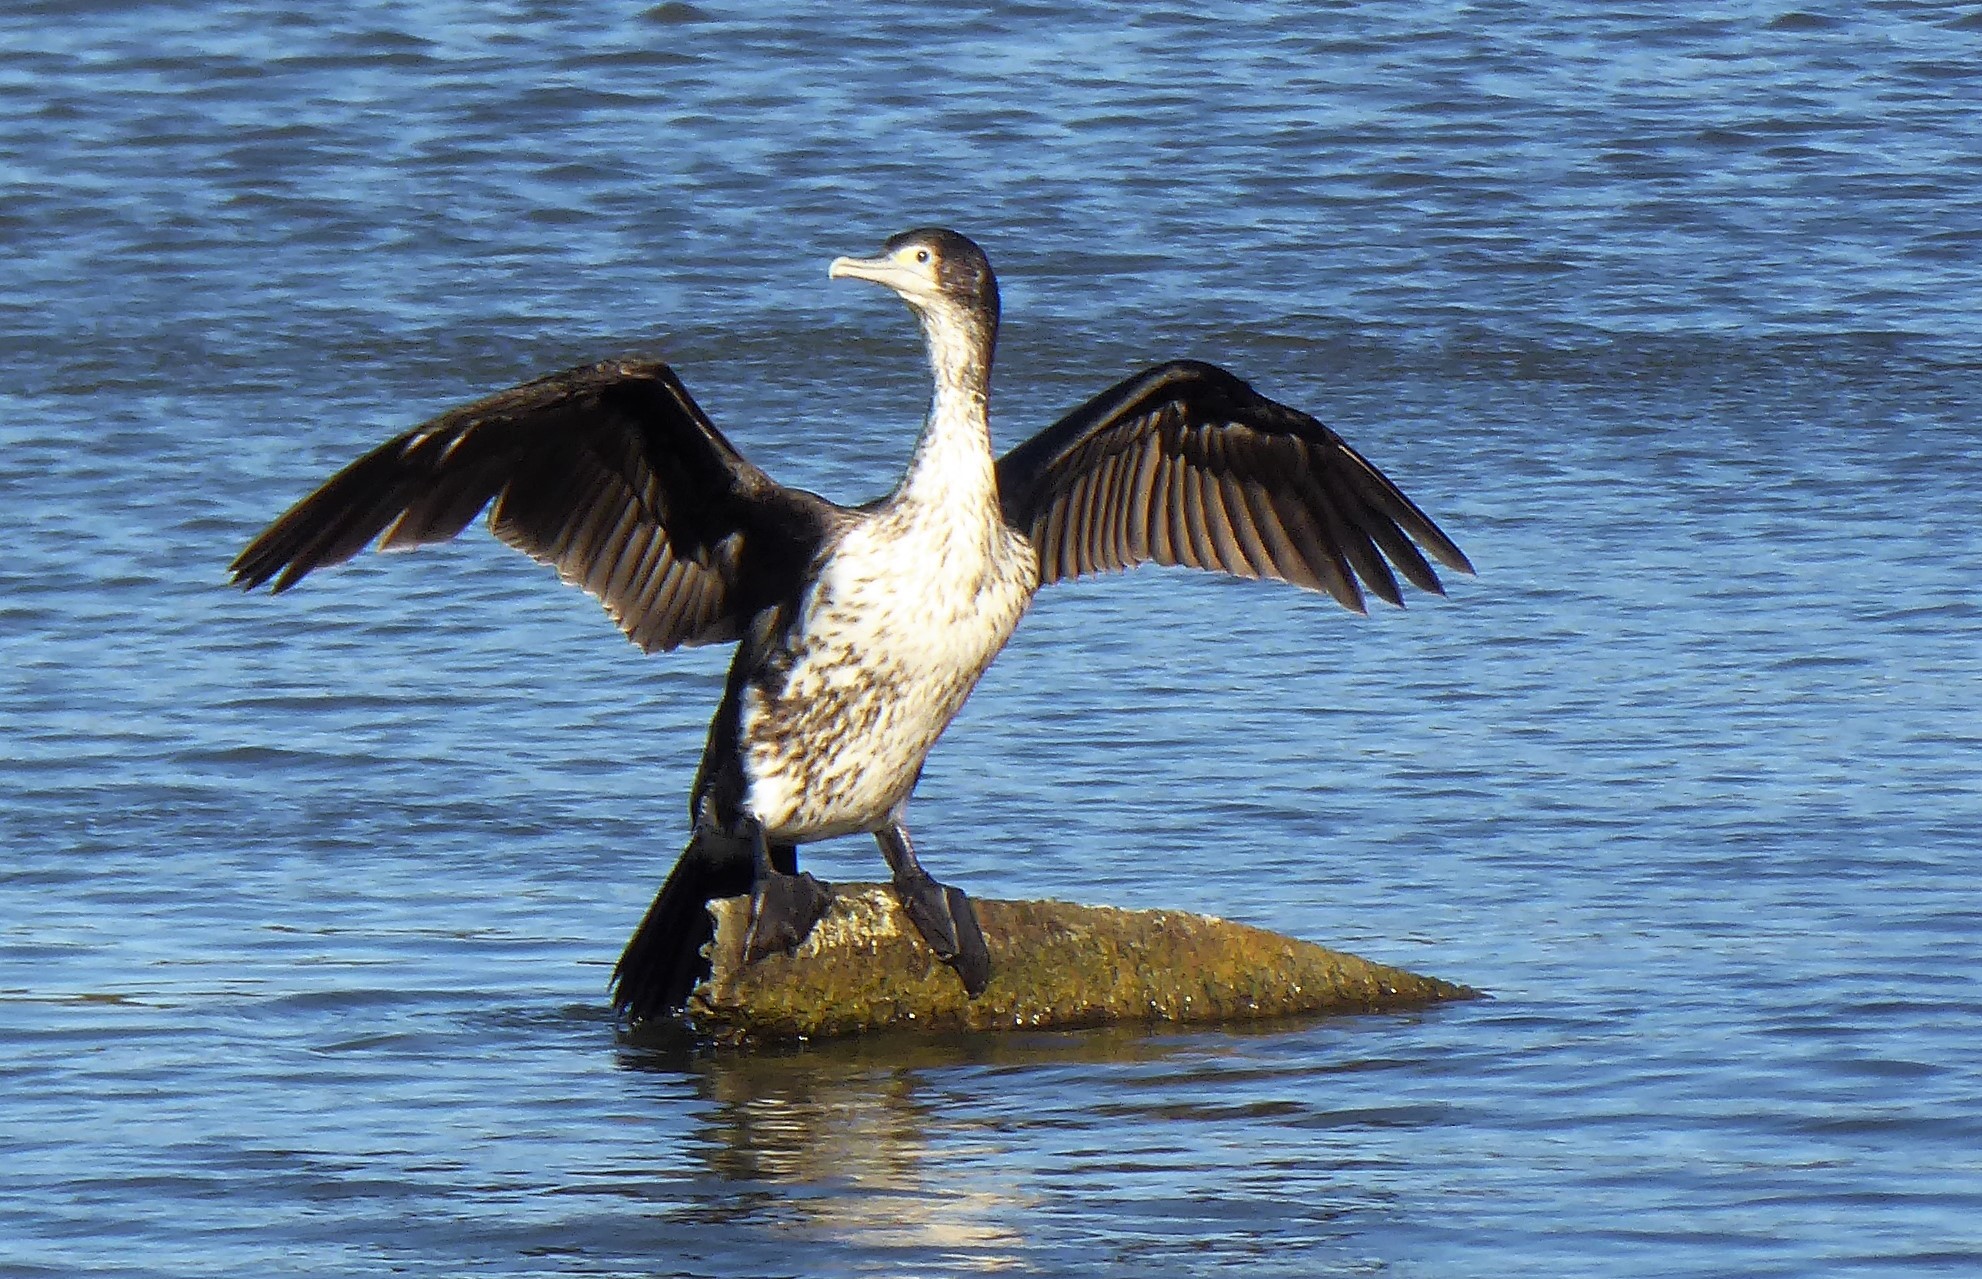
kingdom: Animalia
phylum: Chordata
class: Aves
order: Suliformes
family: Phalacrocoracidae
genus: Phalacrocorax
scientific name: Phalacrocorax varius
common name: Pied cormorant
